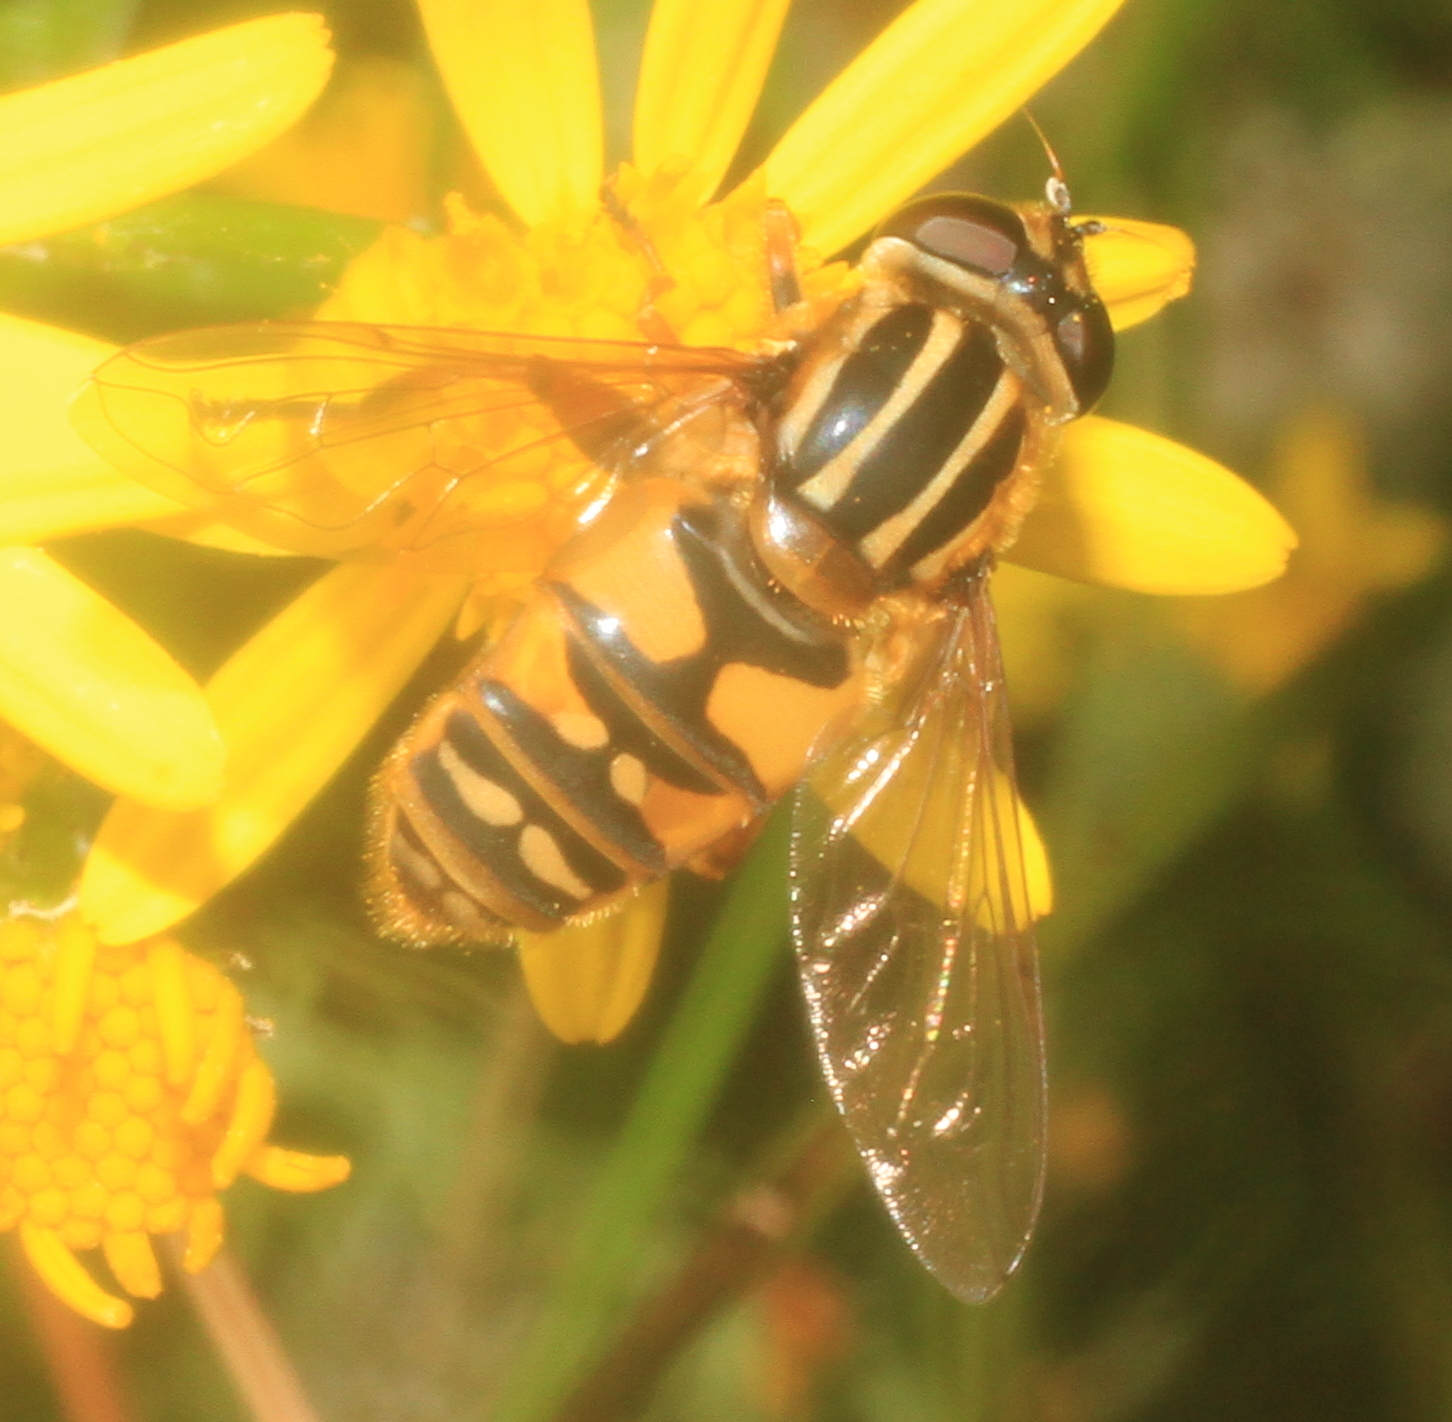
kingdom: Animalia
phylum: Arthropoda
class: Insecta
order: Diptera
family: Syrphidae
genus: Helophilus
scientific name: Helophilus pendulus
